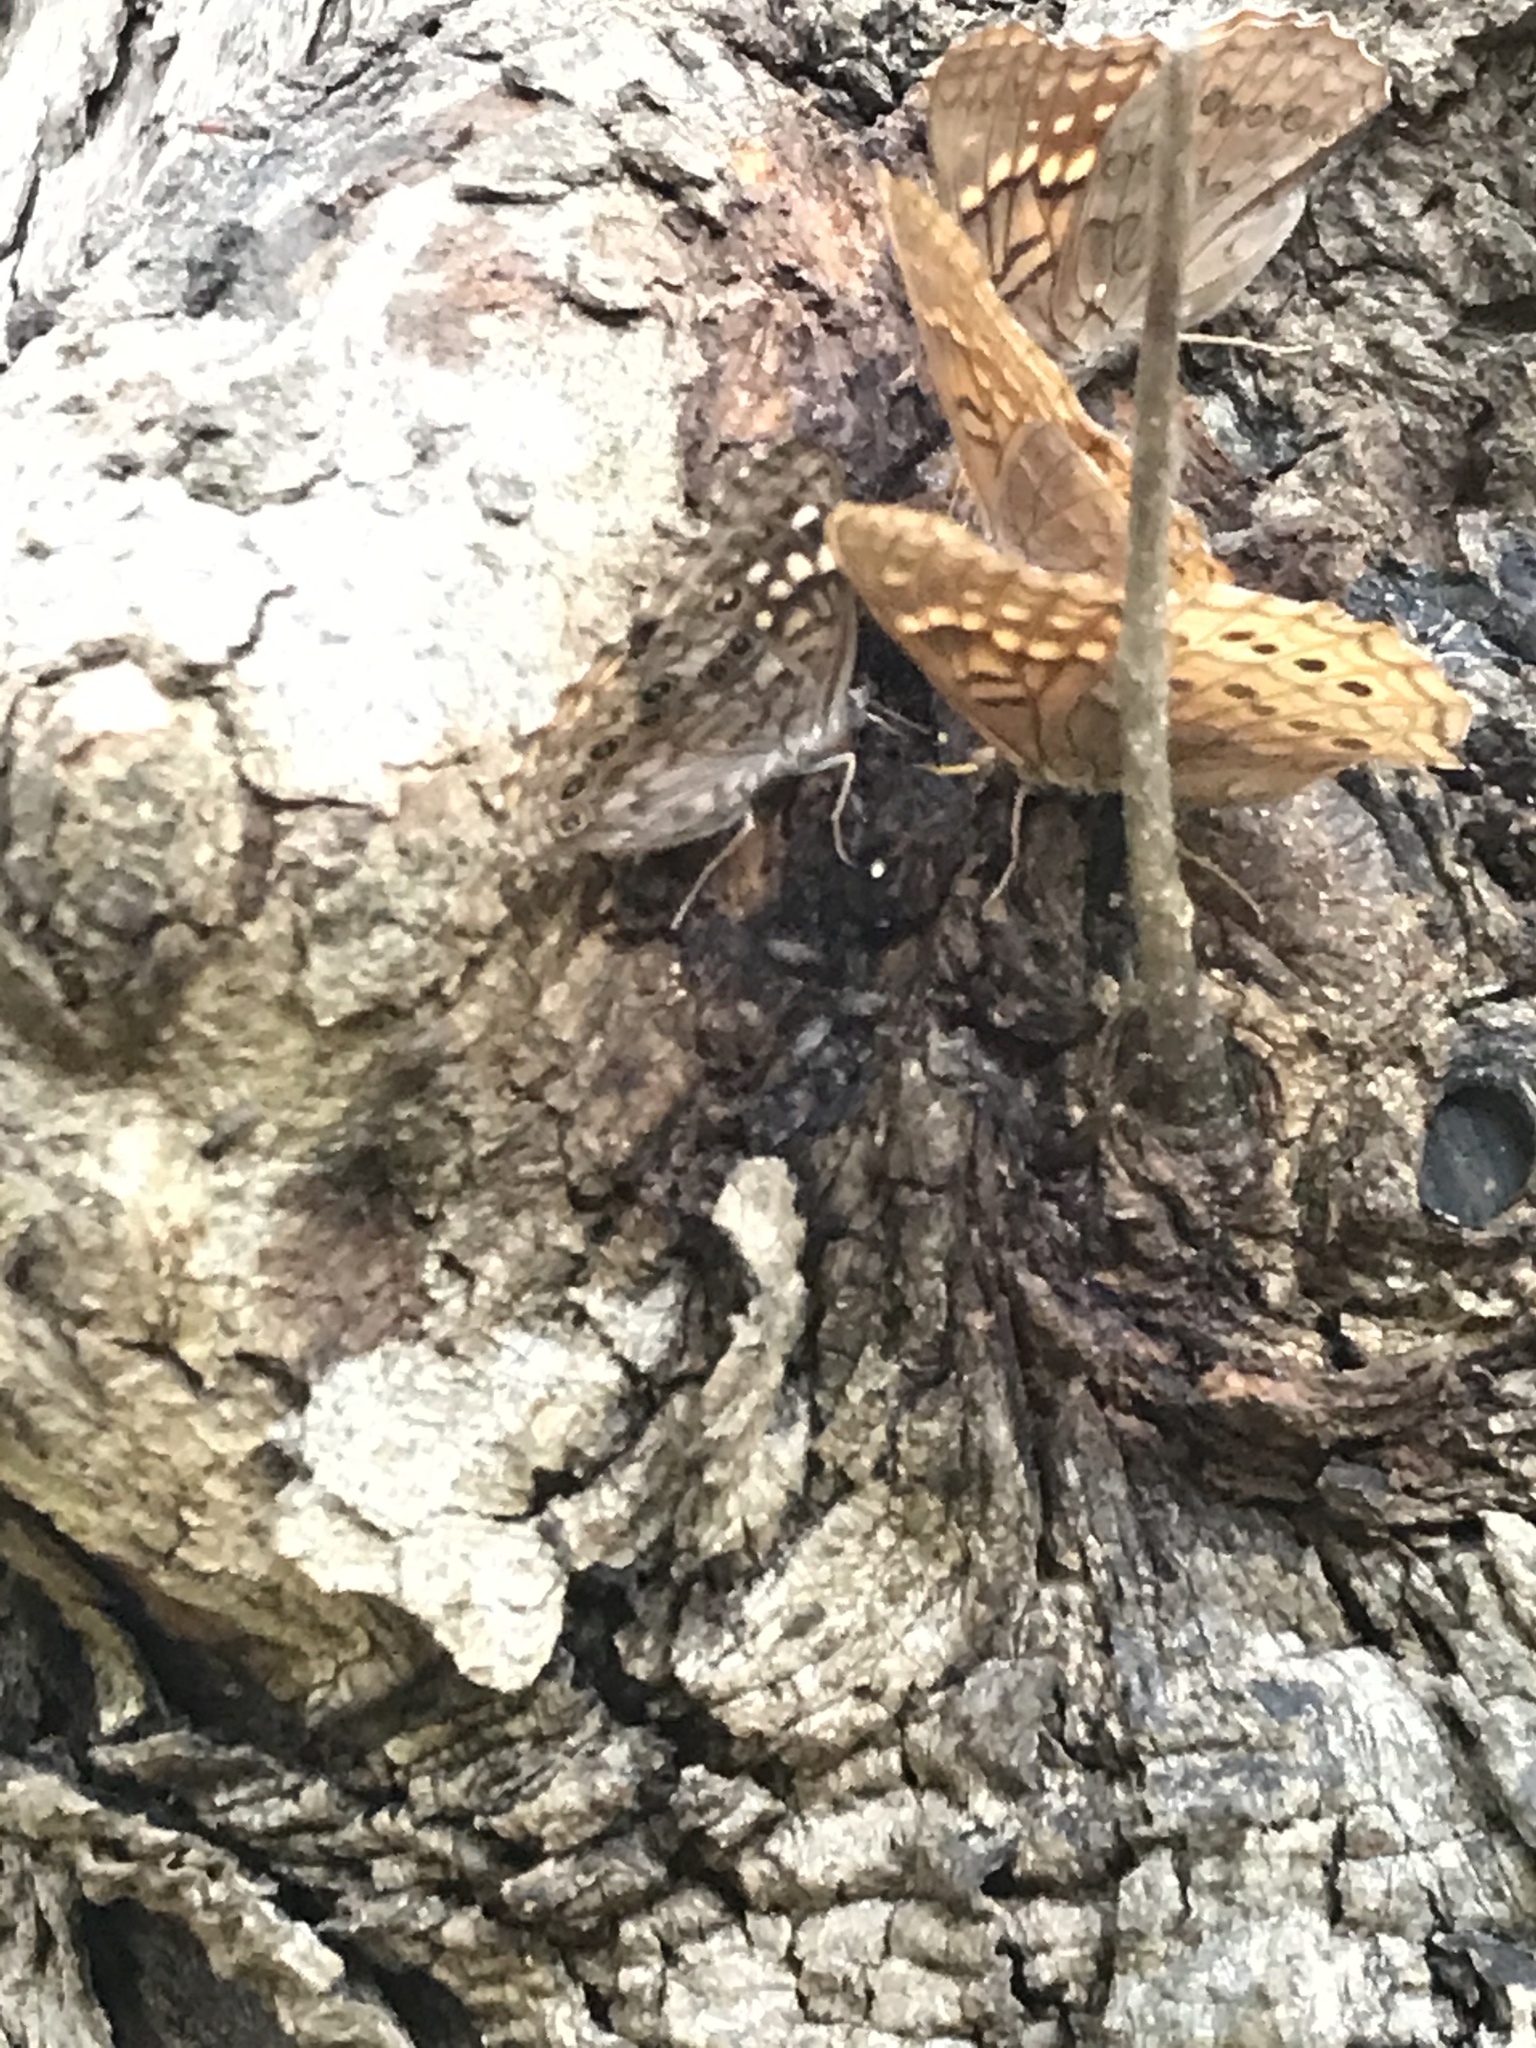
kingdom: Animalia
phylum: Arthropoda
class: Insecta
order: Lepidoptera
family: Nymphalidae
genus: Asterocampa
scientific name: Asterocampa clyton
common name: Tawny emperor
